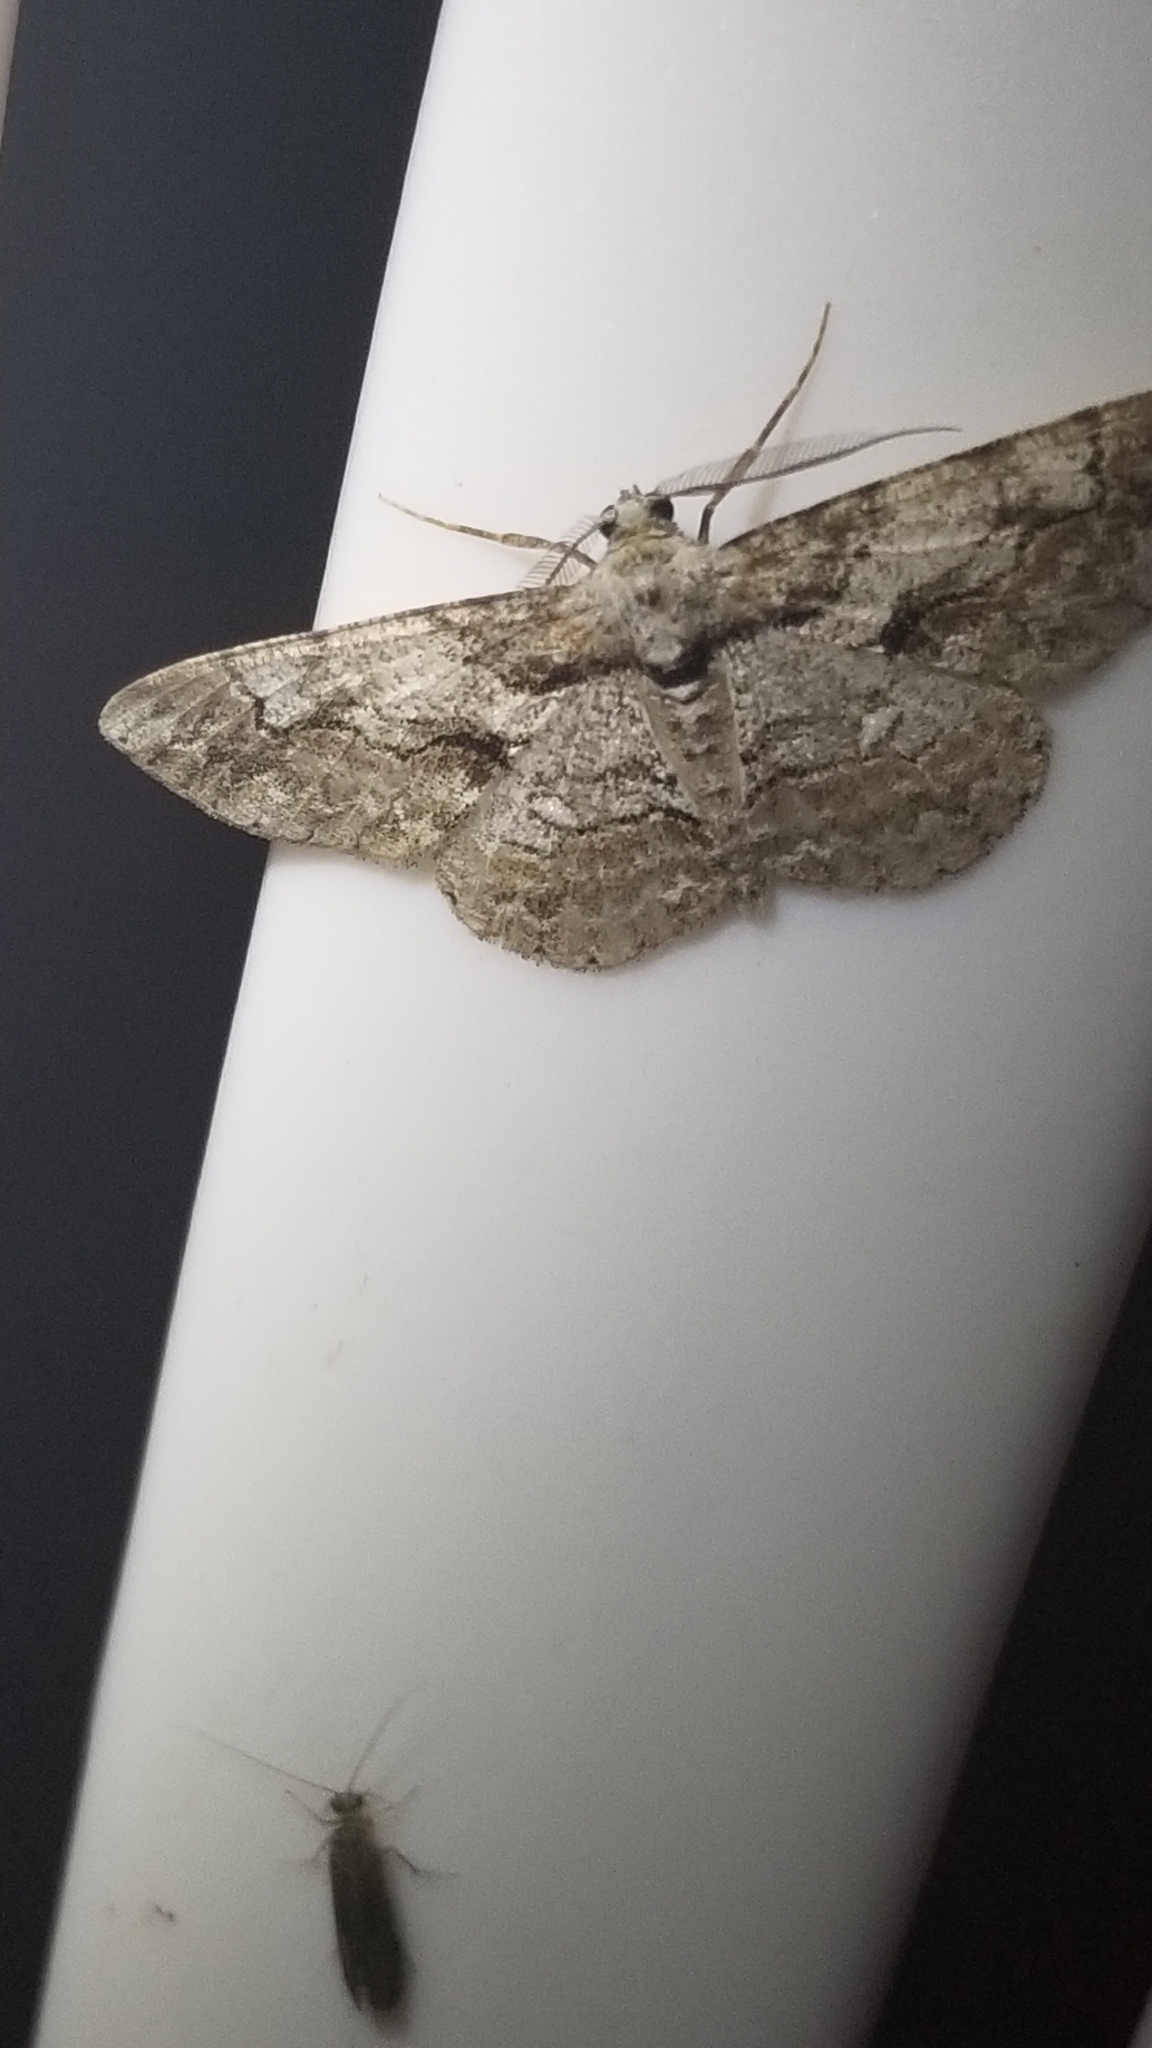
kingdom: Animalia
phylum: Arthropoda
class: Insecta
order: Lepidoptera
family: Geometridae
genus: Anavitrinella
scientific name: Anavitrinella pampinaria
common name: Common gray
